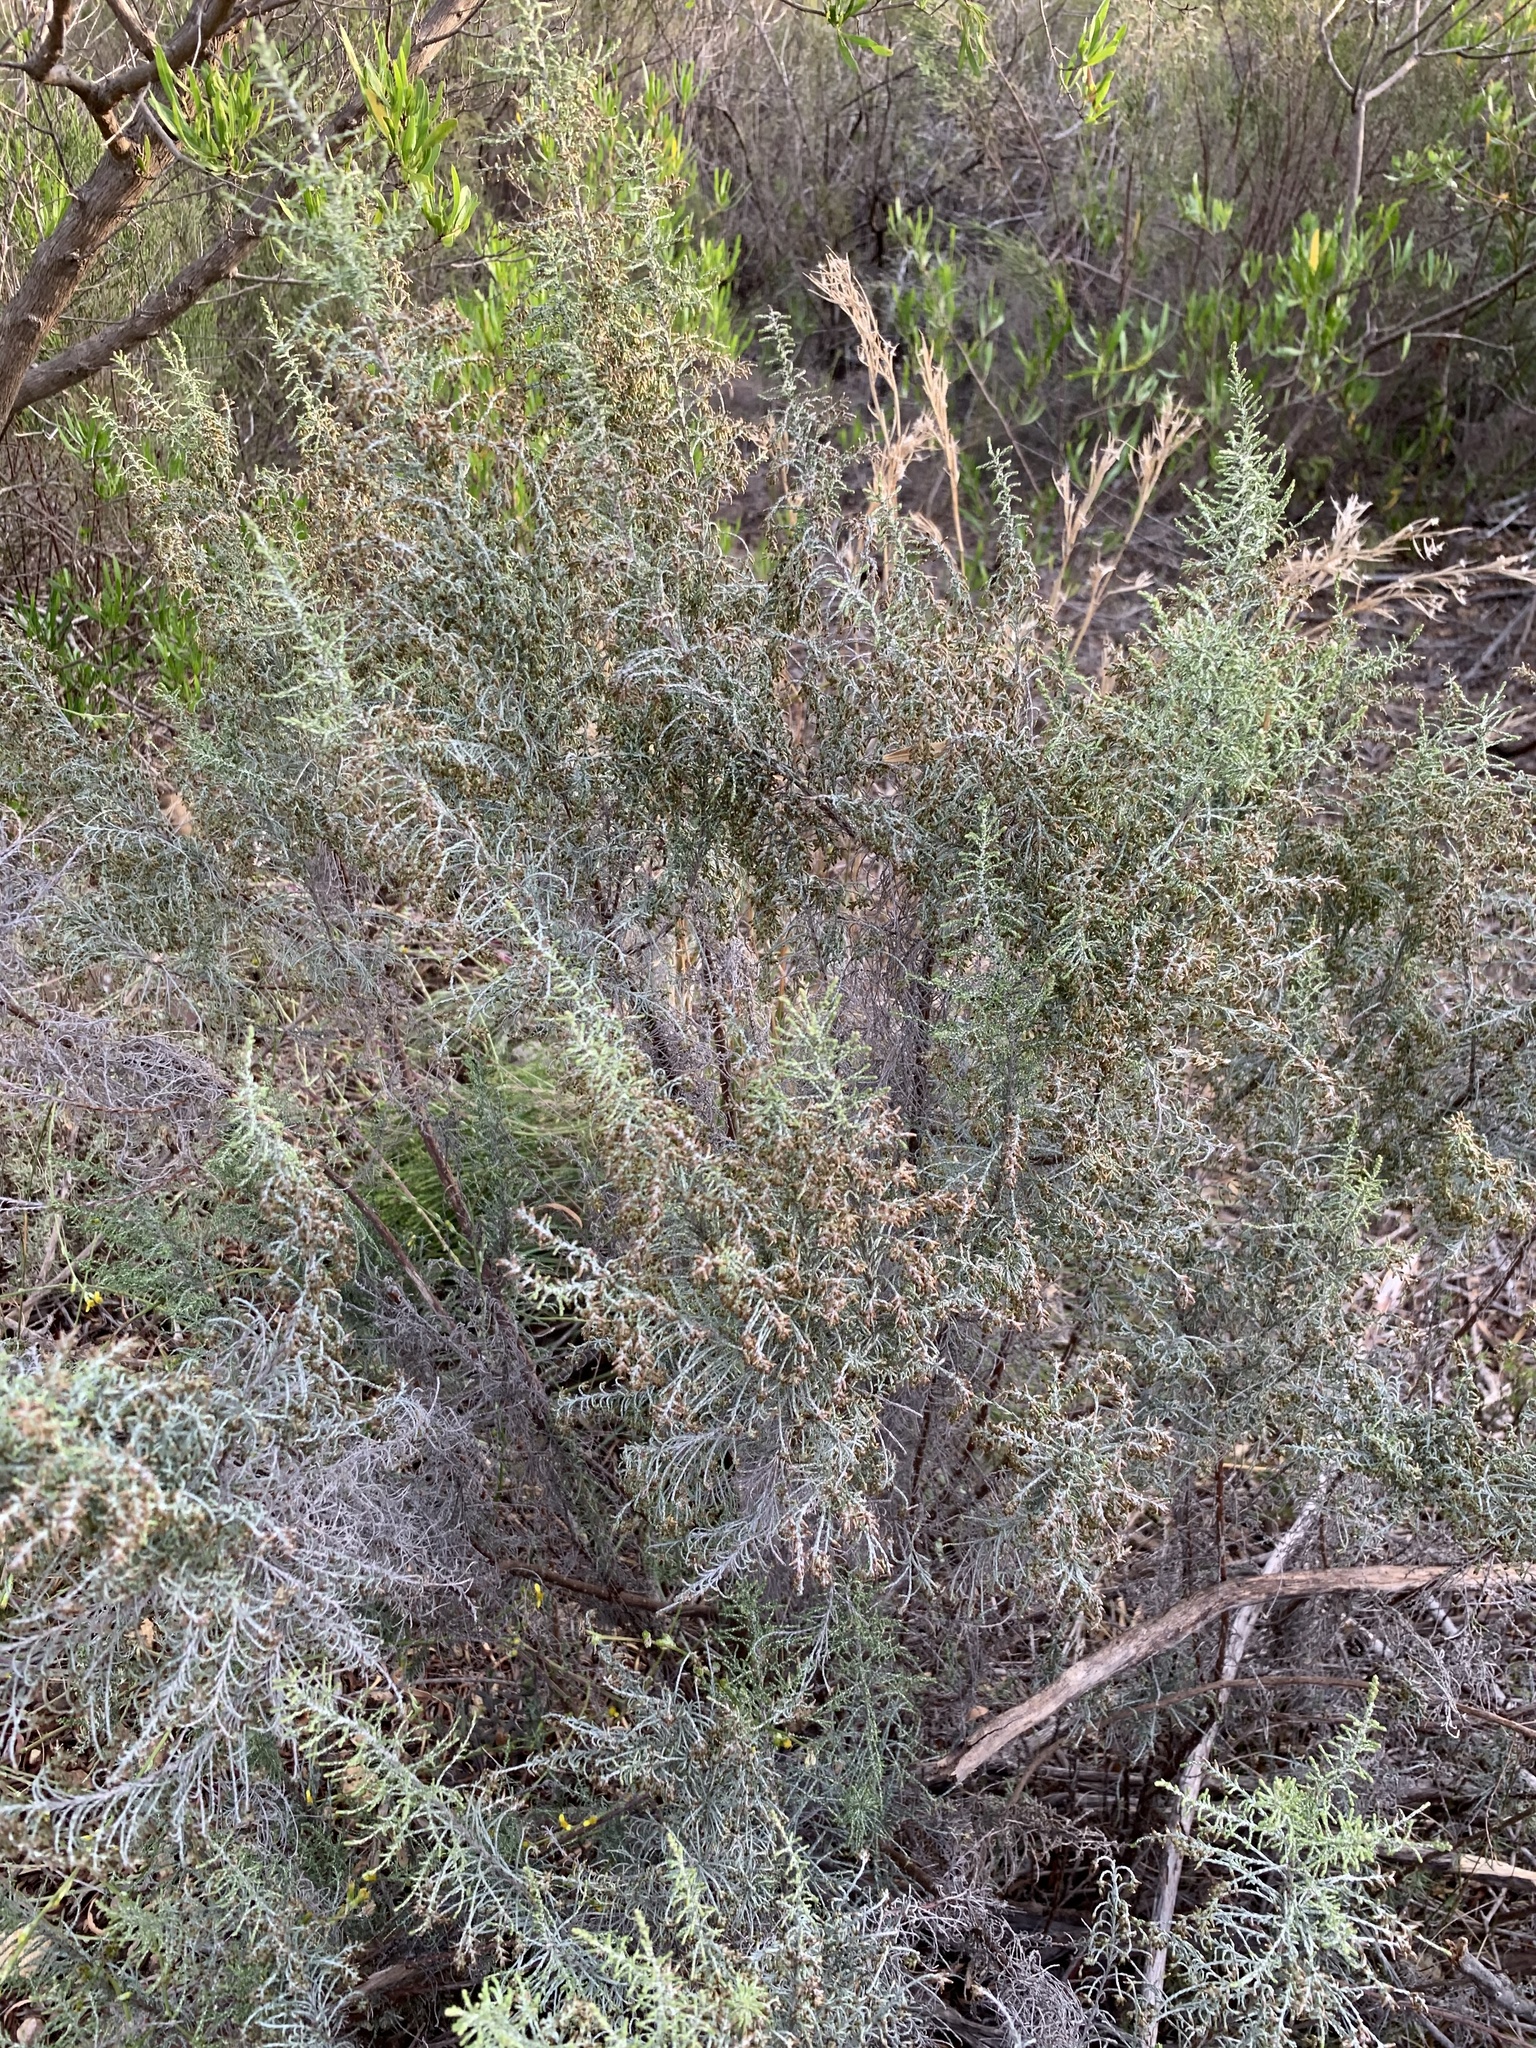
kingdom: Plantae
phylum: Tracheophyta
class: Magnoliopsida
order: Asterales
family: Asteraceae
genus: Dicerothamnus
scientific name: Dicerothamnus rhinocerotis
